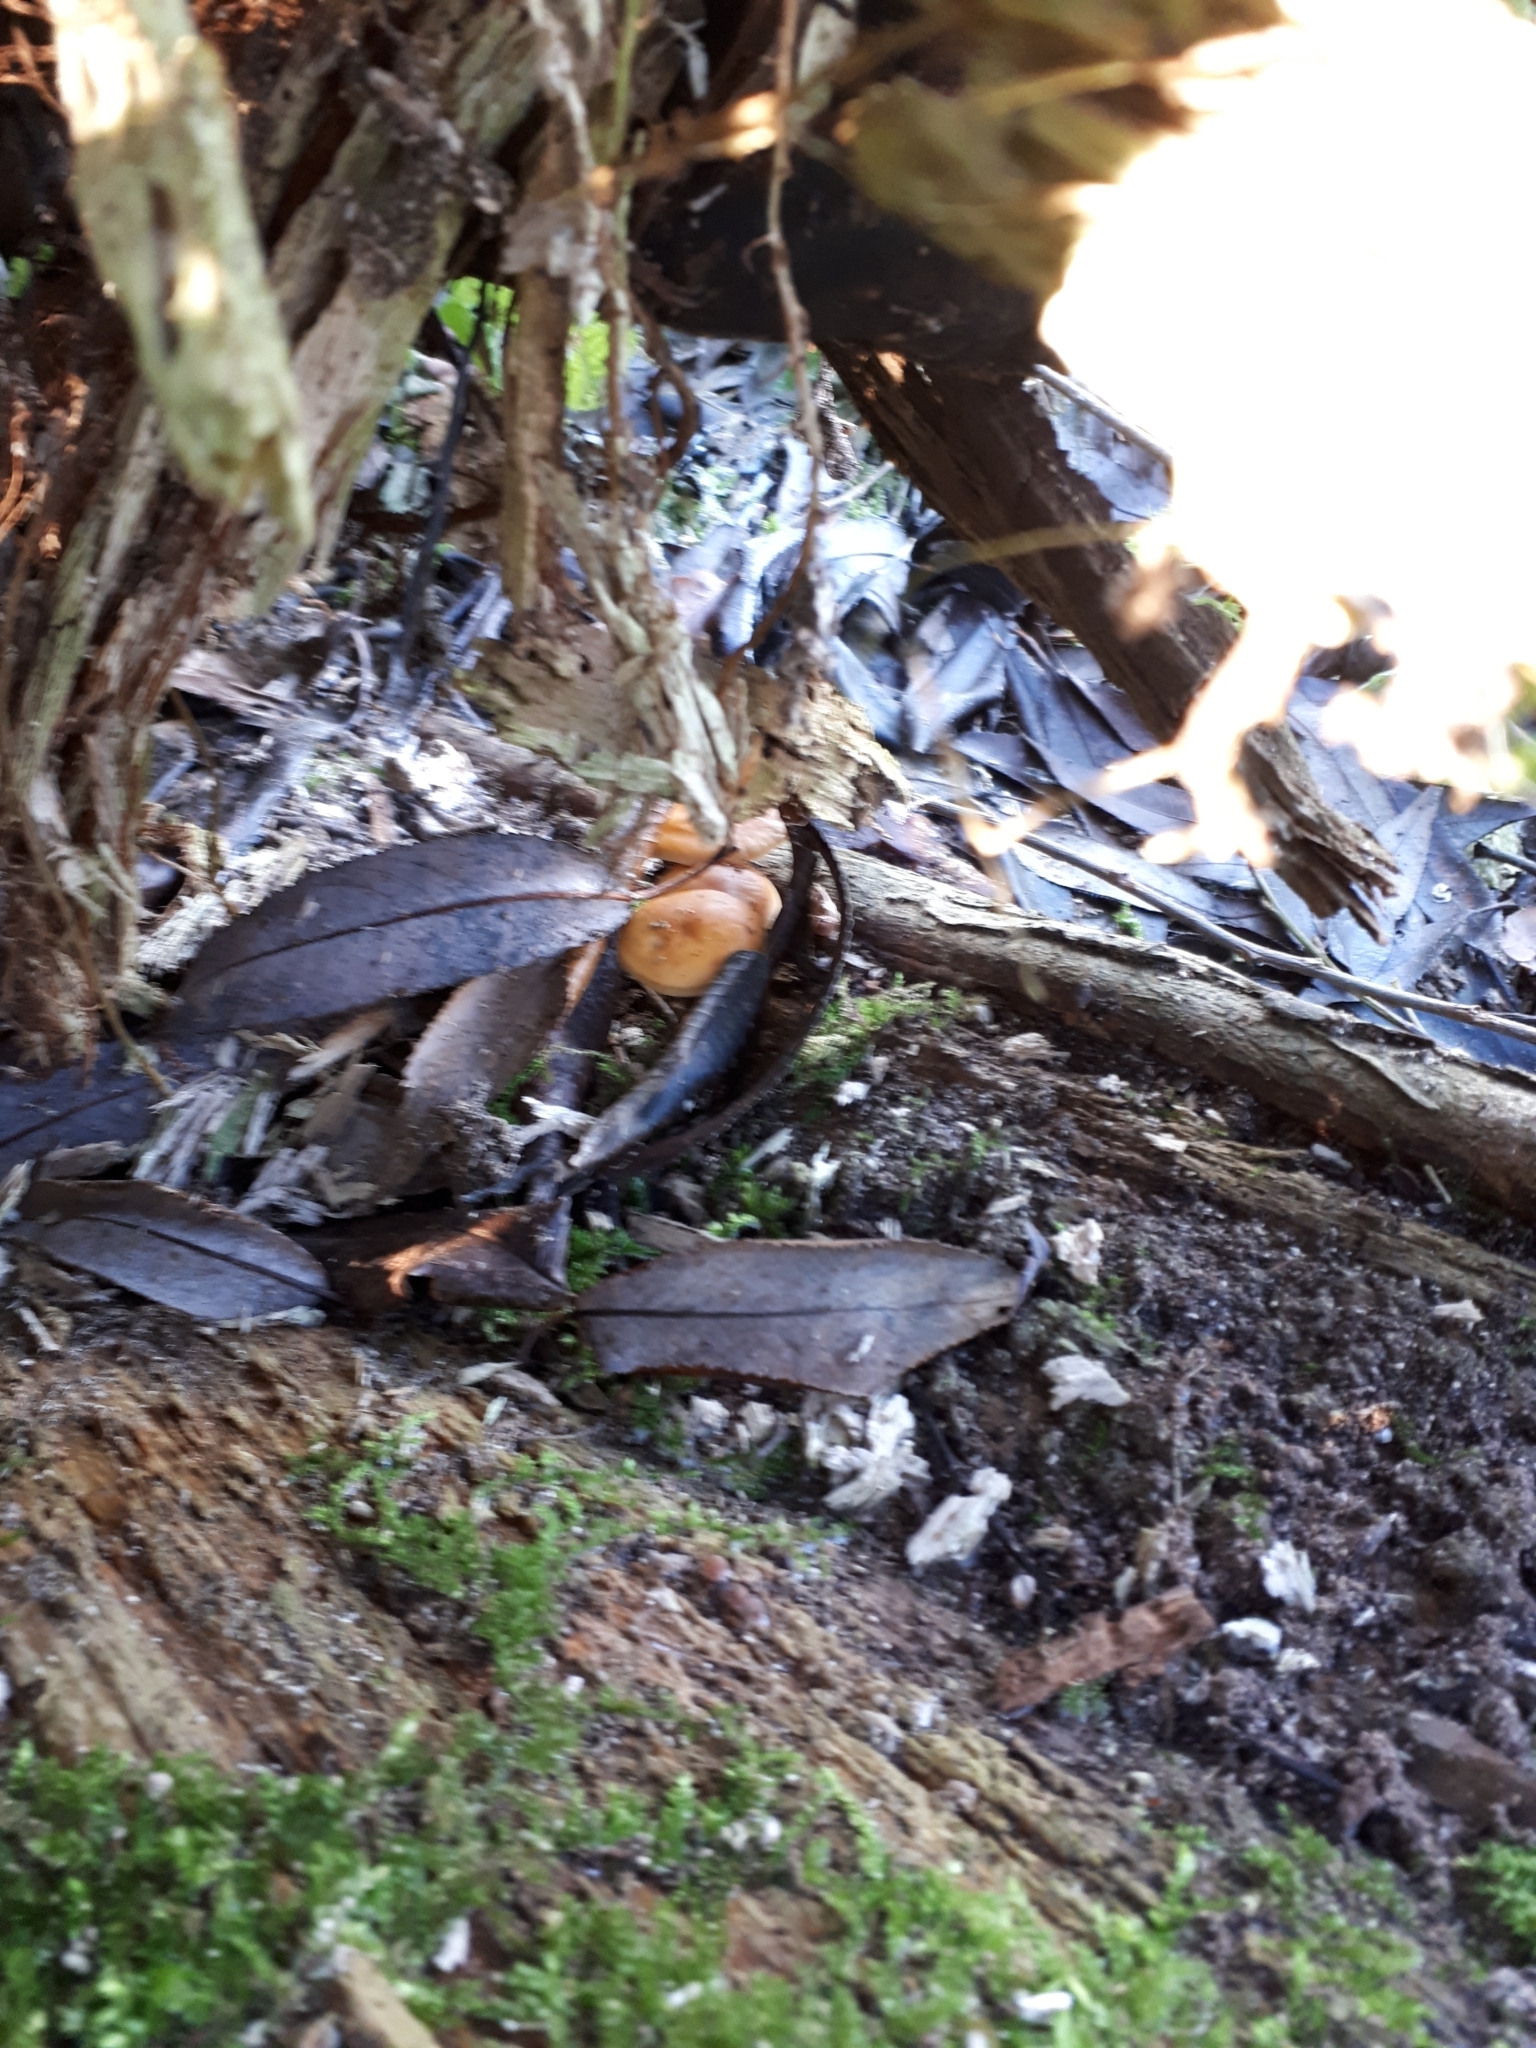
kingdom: Fungi
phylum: Basidiomycota
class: Agaricomycetes
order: Agaricales
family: Physalacriaceae
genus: Flammulina
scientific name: Flammulina
